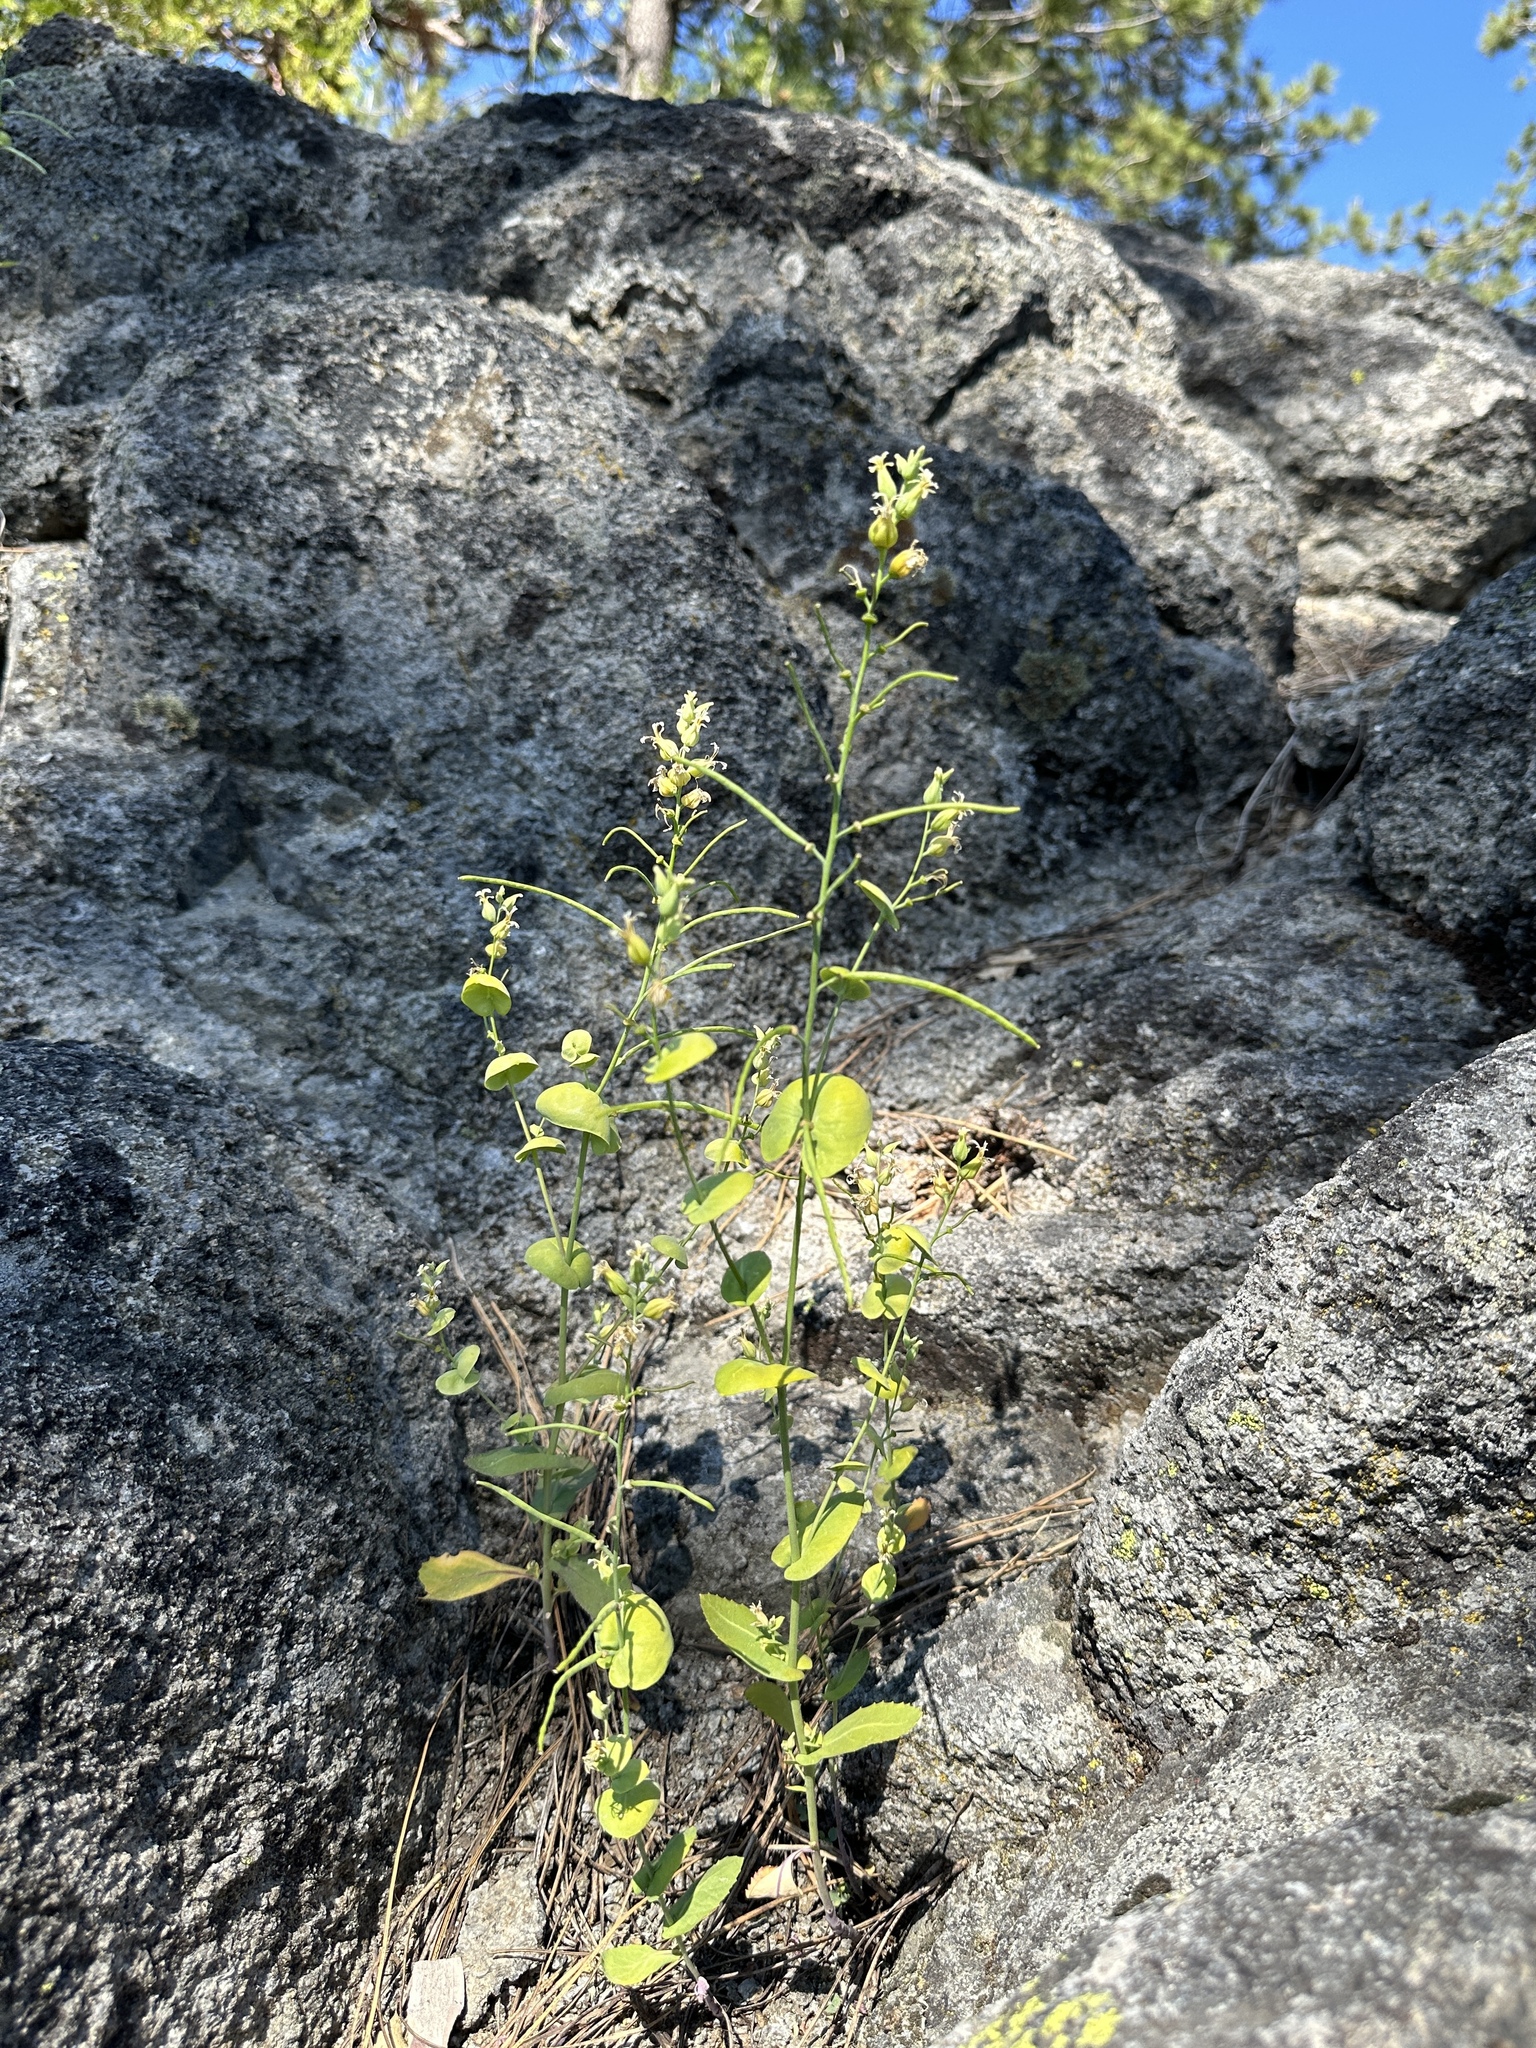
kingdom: Plantae
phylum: Tracheophyta
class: Magnoliopsida
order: Brassicales
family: Brassicaceae
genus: Streptanthus
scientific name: Streptanthus tortuosus
